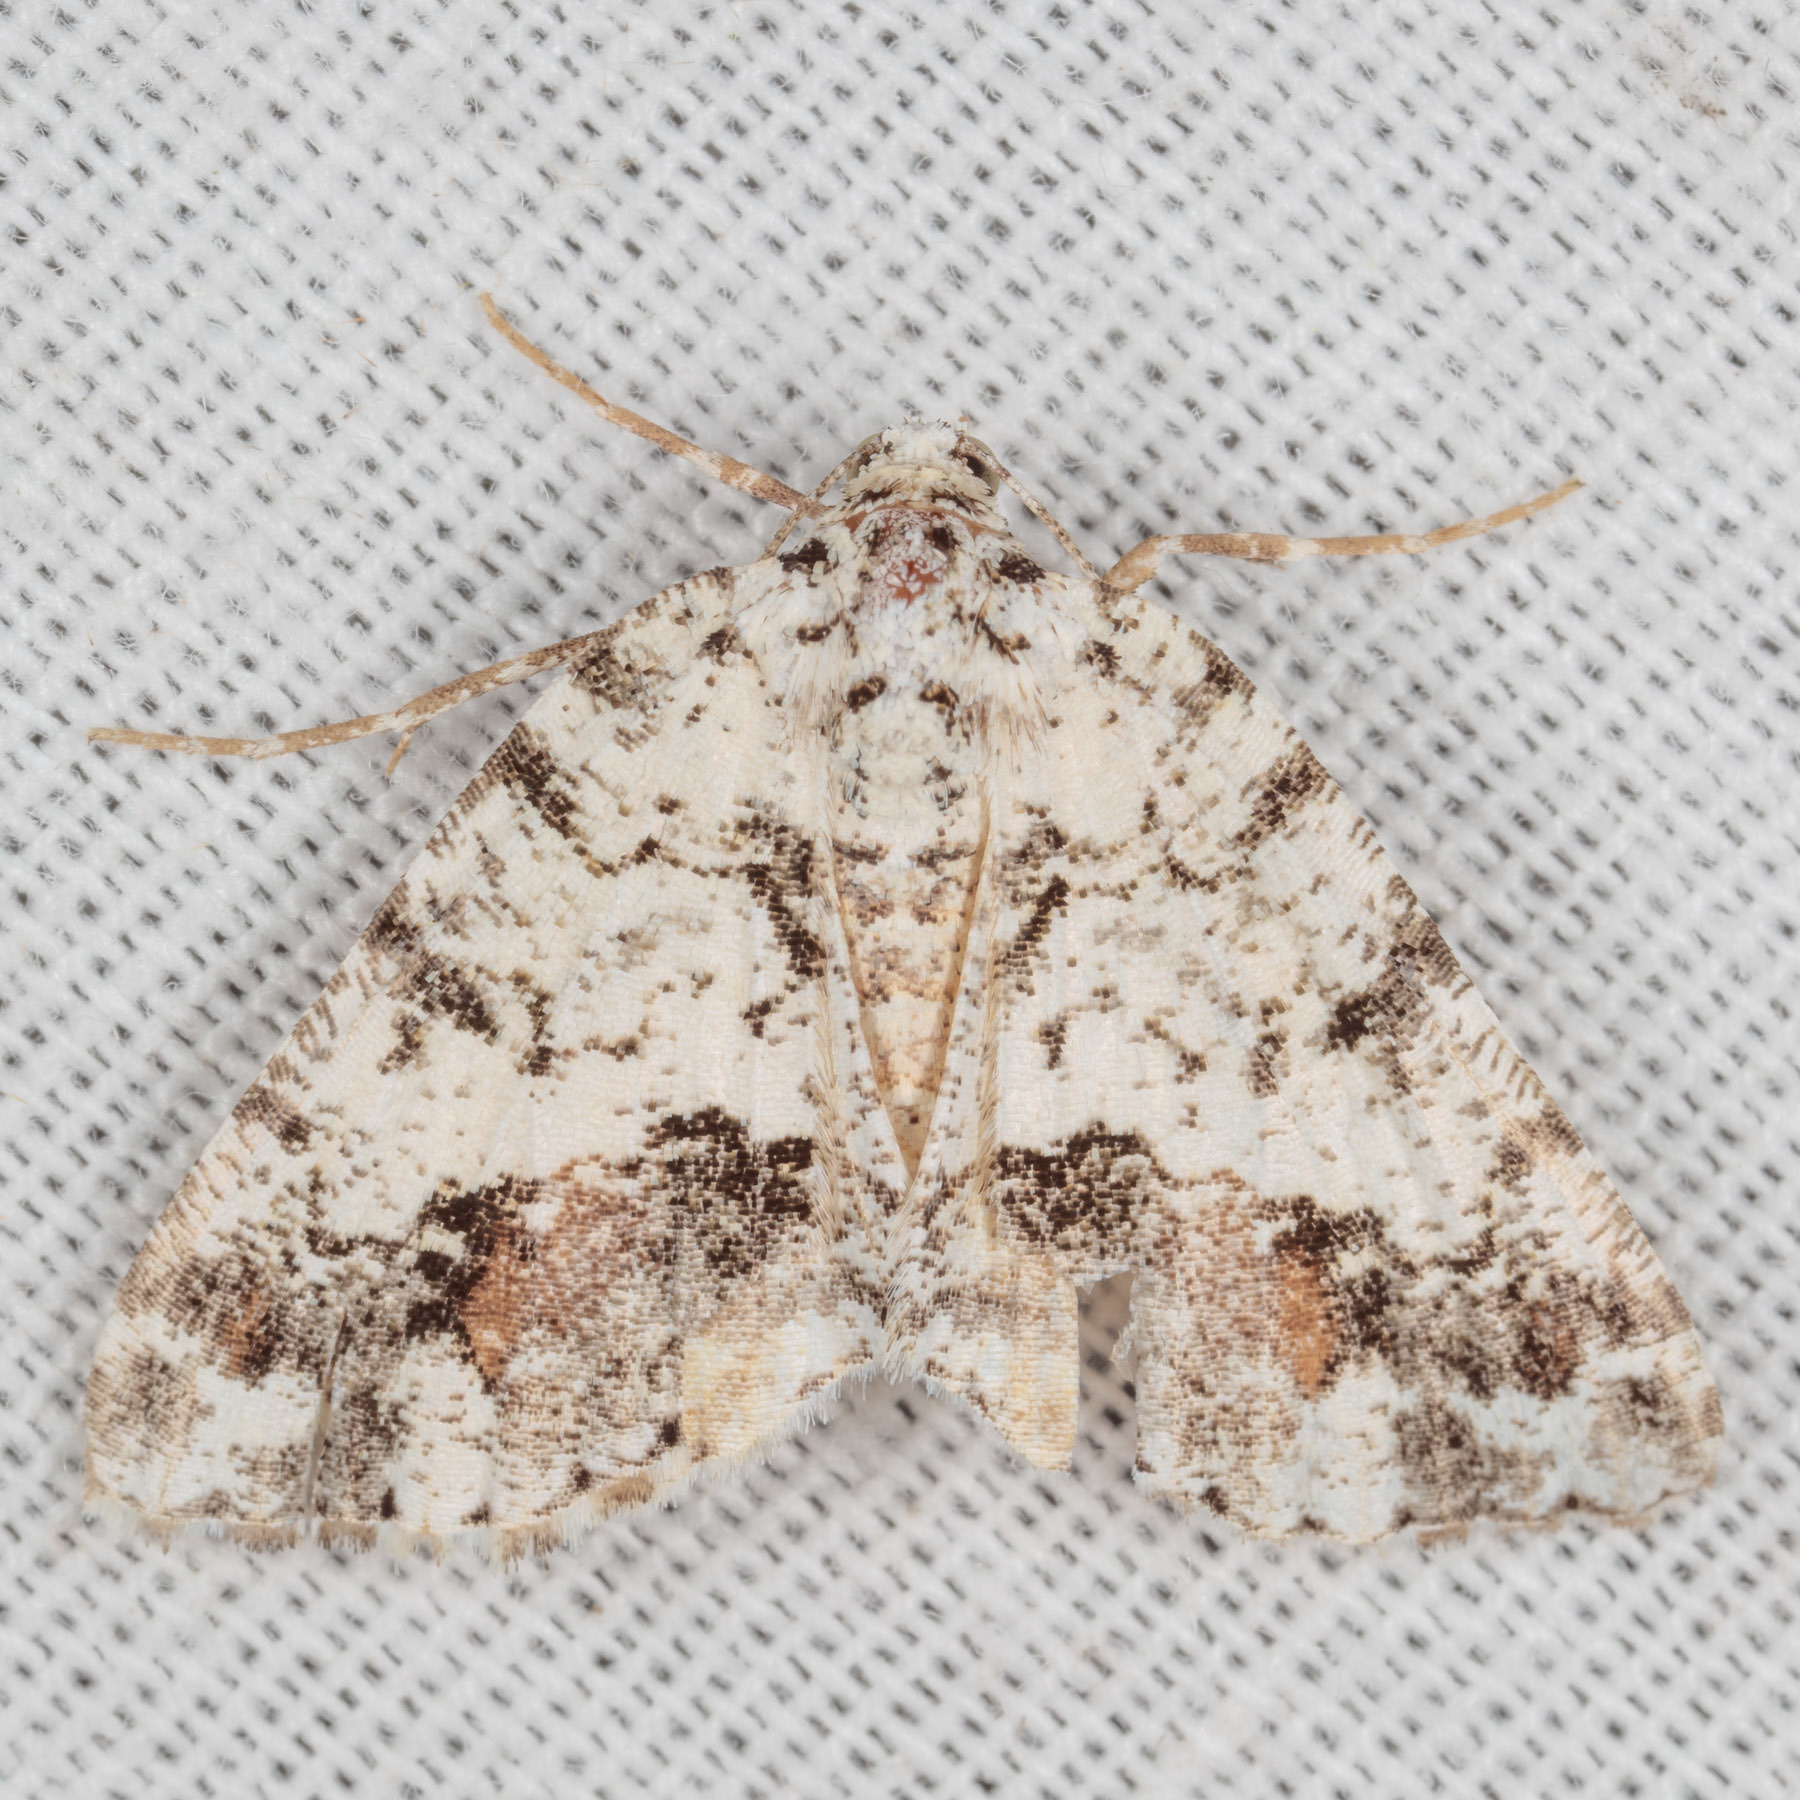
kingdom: Animalia
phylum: Arthropoda
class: Insecta
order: Lepidoptera
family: Geometridae
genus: Macaria
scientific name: Macaria graphidaria
